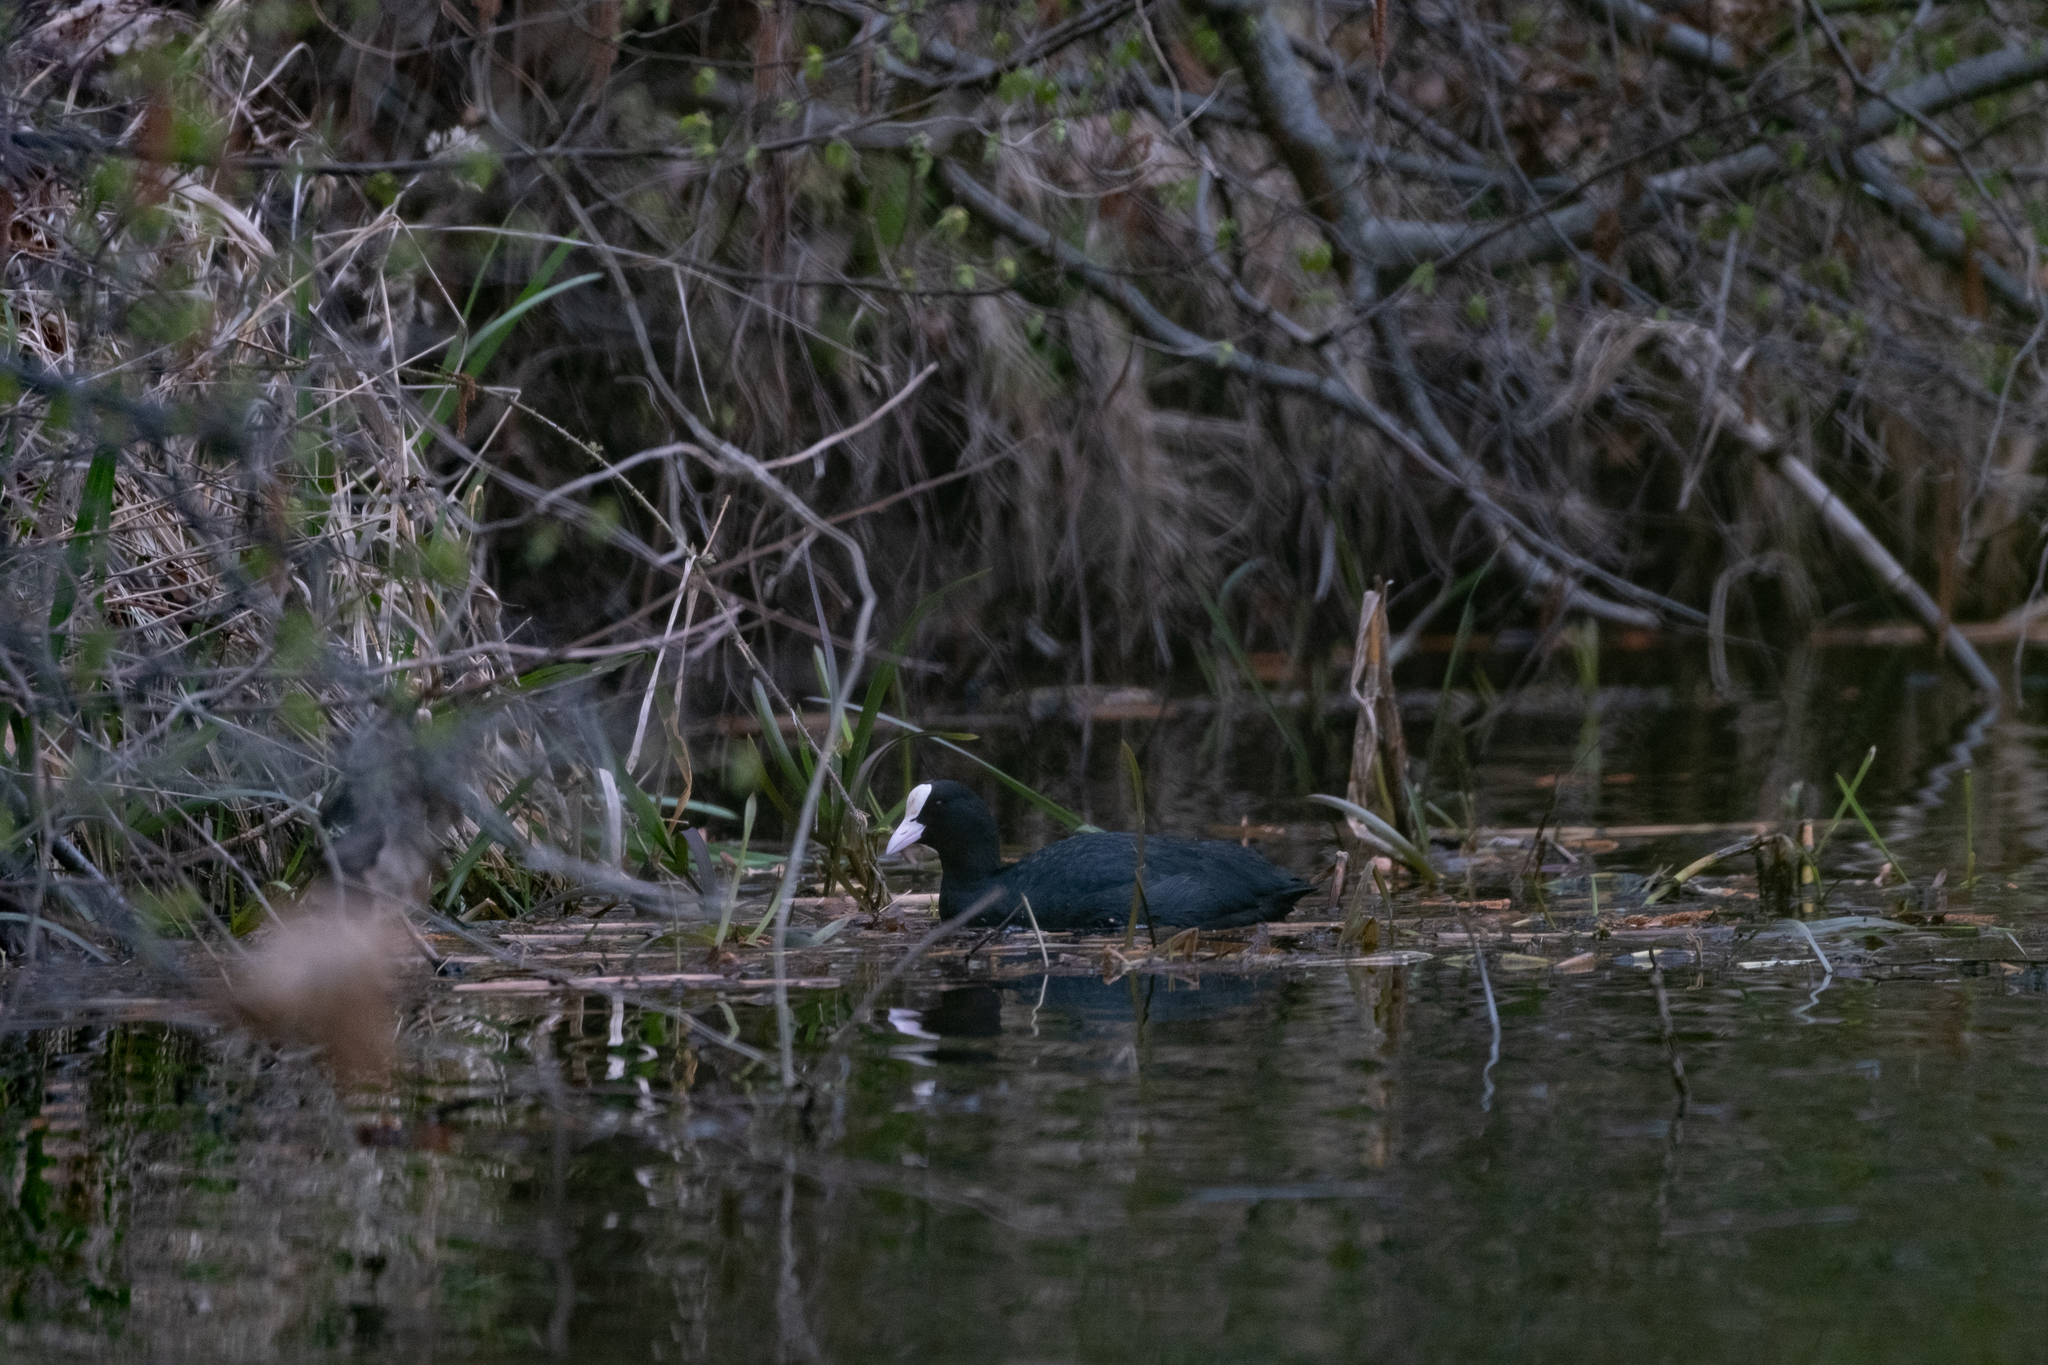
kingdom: Animalia
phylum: Chordata
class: Aves
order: Gruiformes
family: Rallidae
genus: Fulica
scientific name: Fulica atra
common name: Eurasian coot
